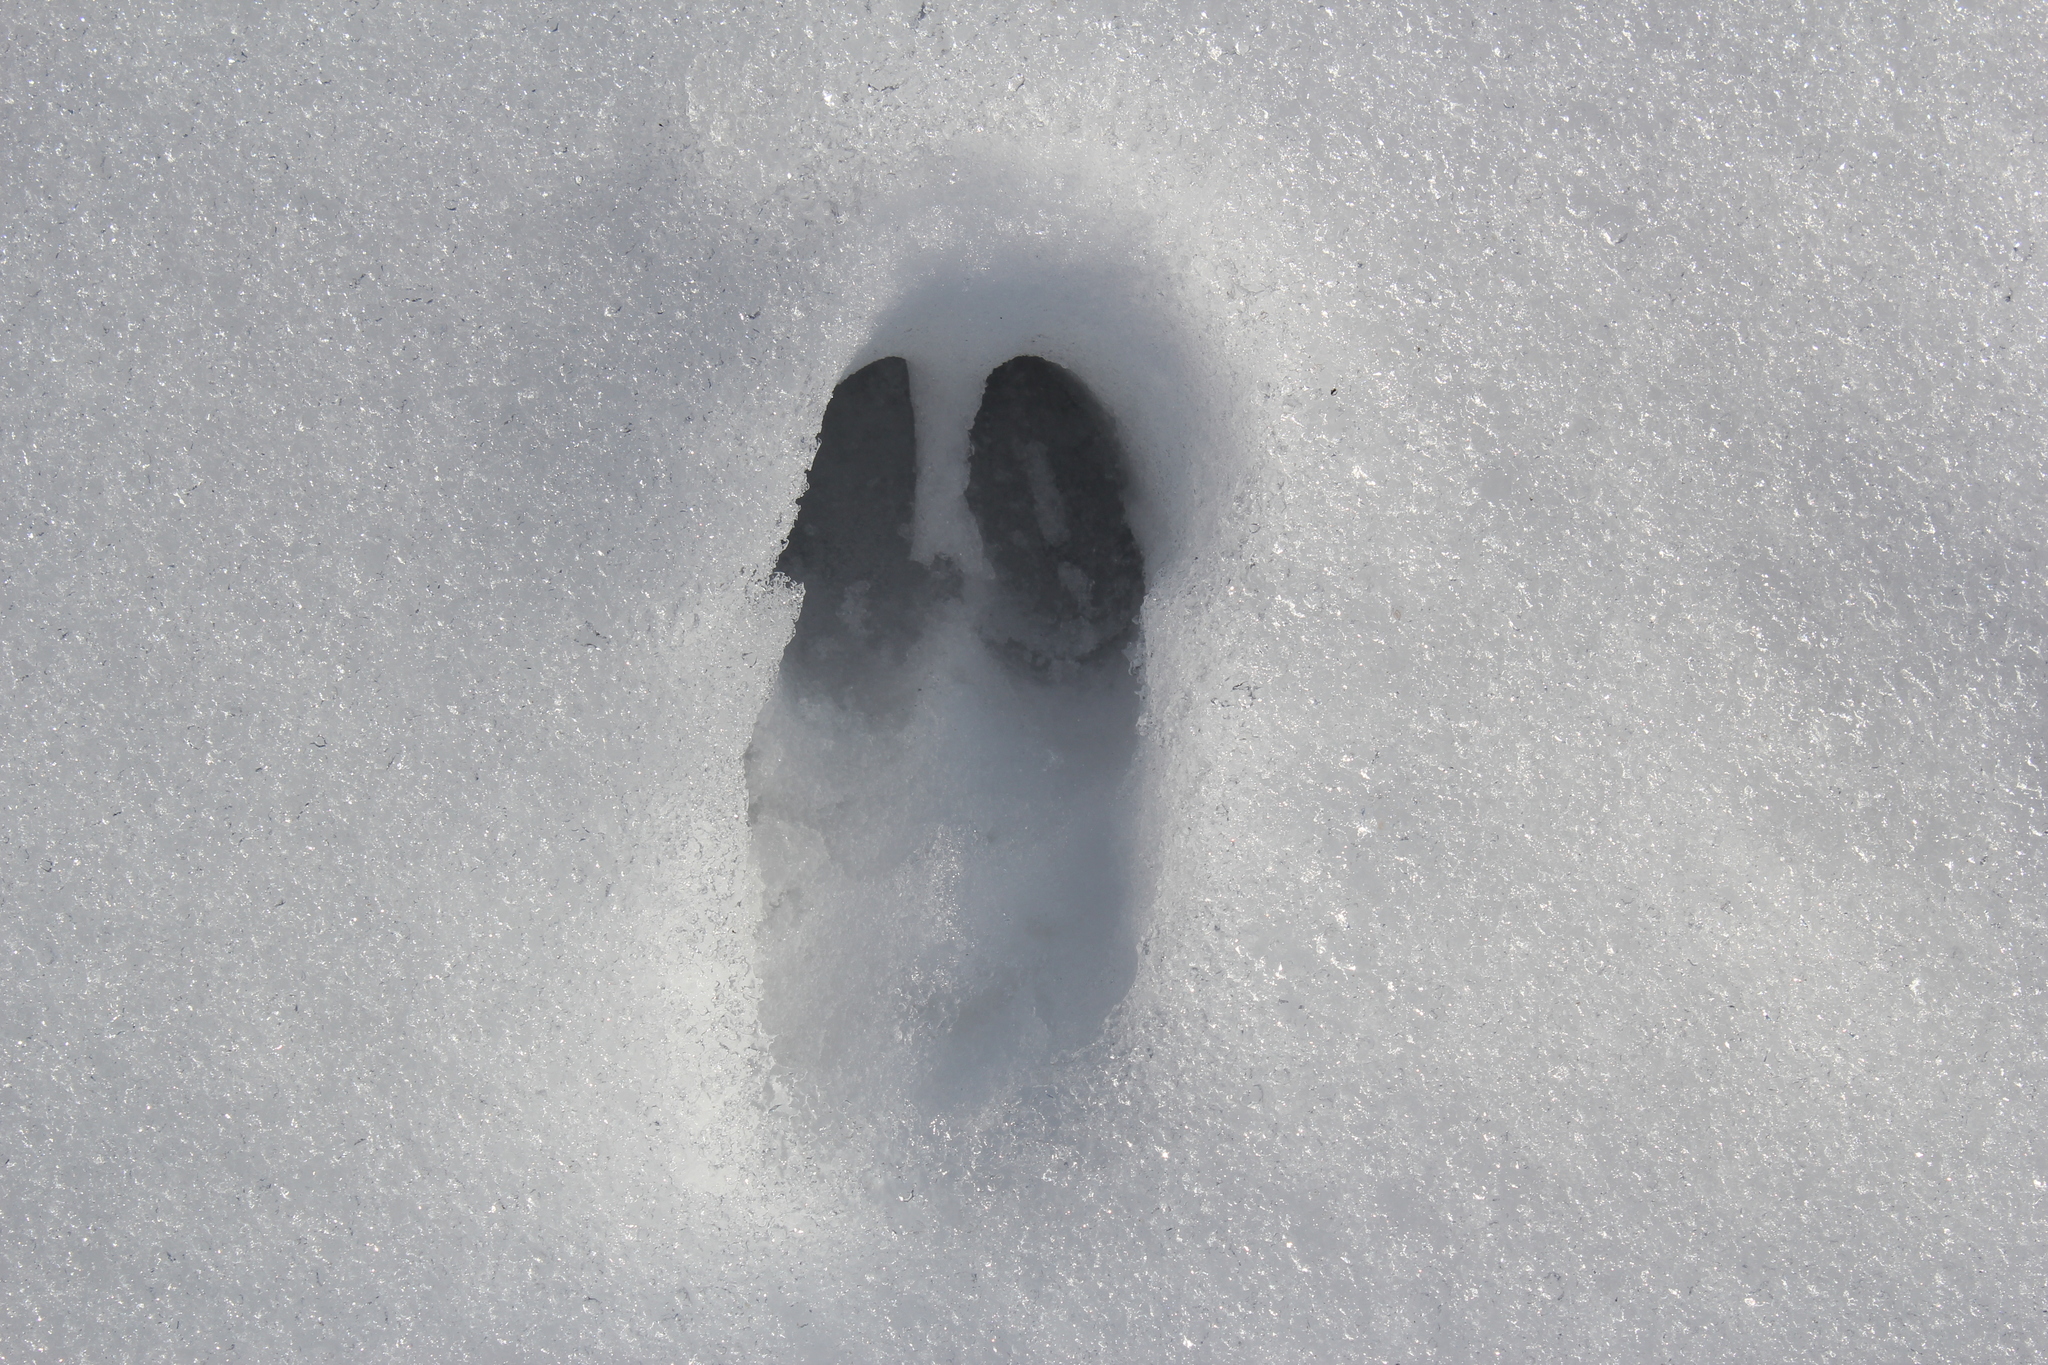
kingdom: Animalia
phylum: Chordata
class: Mammalia
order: Artiodactyla
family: Cervidae
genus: Odocoileus
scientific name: Odocoileus virginianus
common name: White-tailed deer
